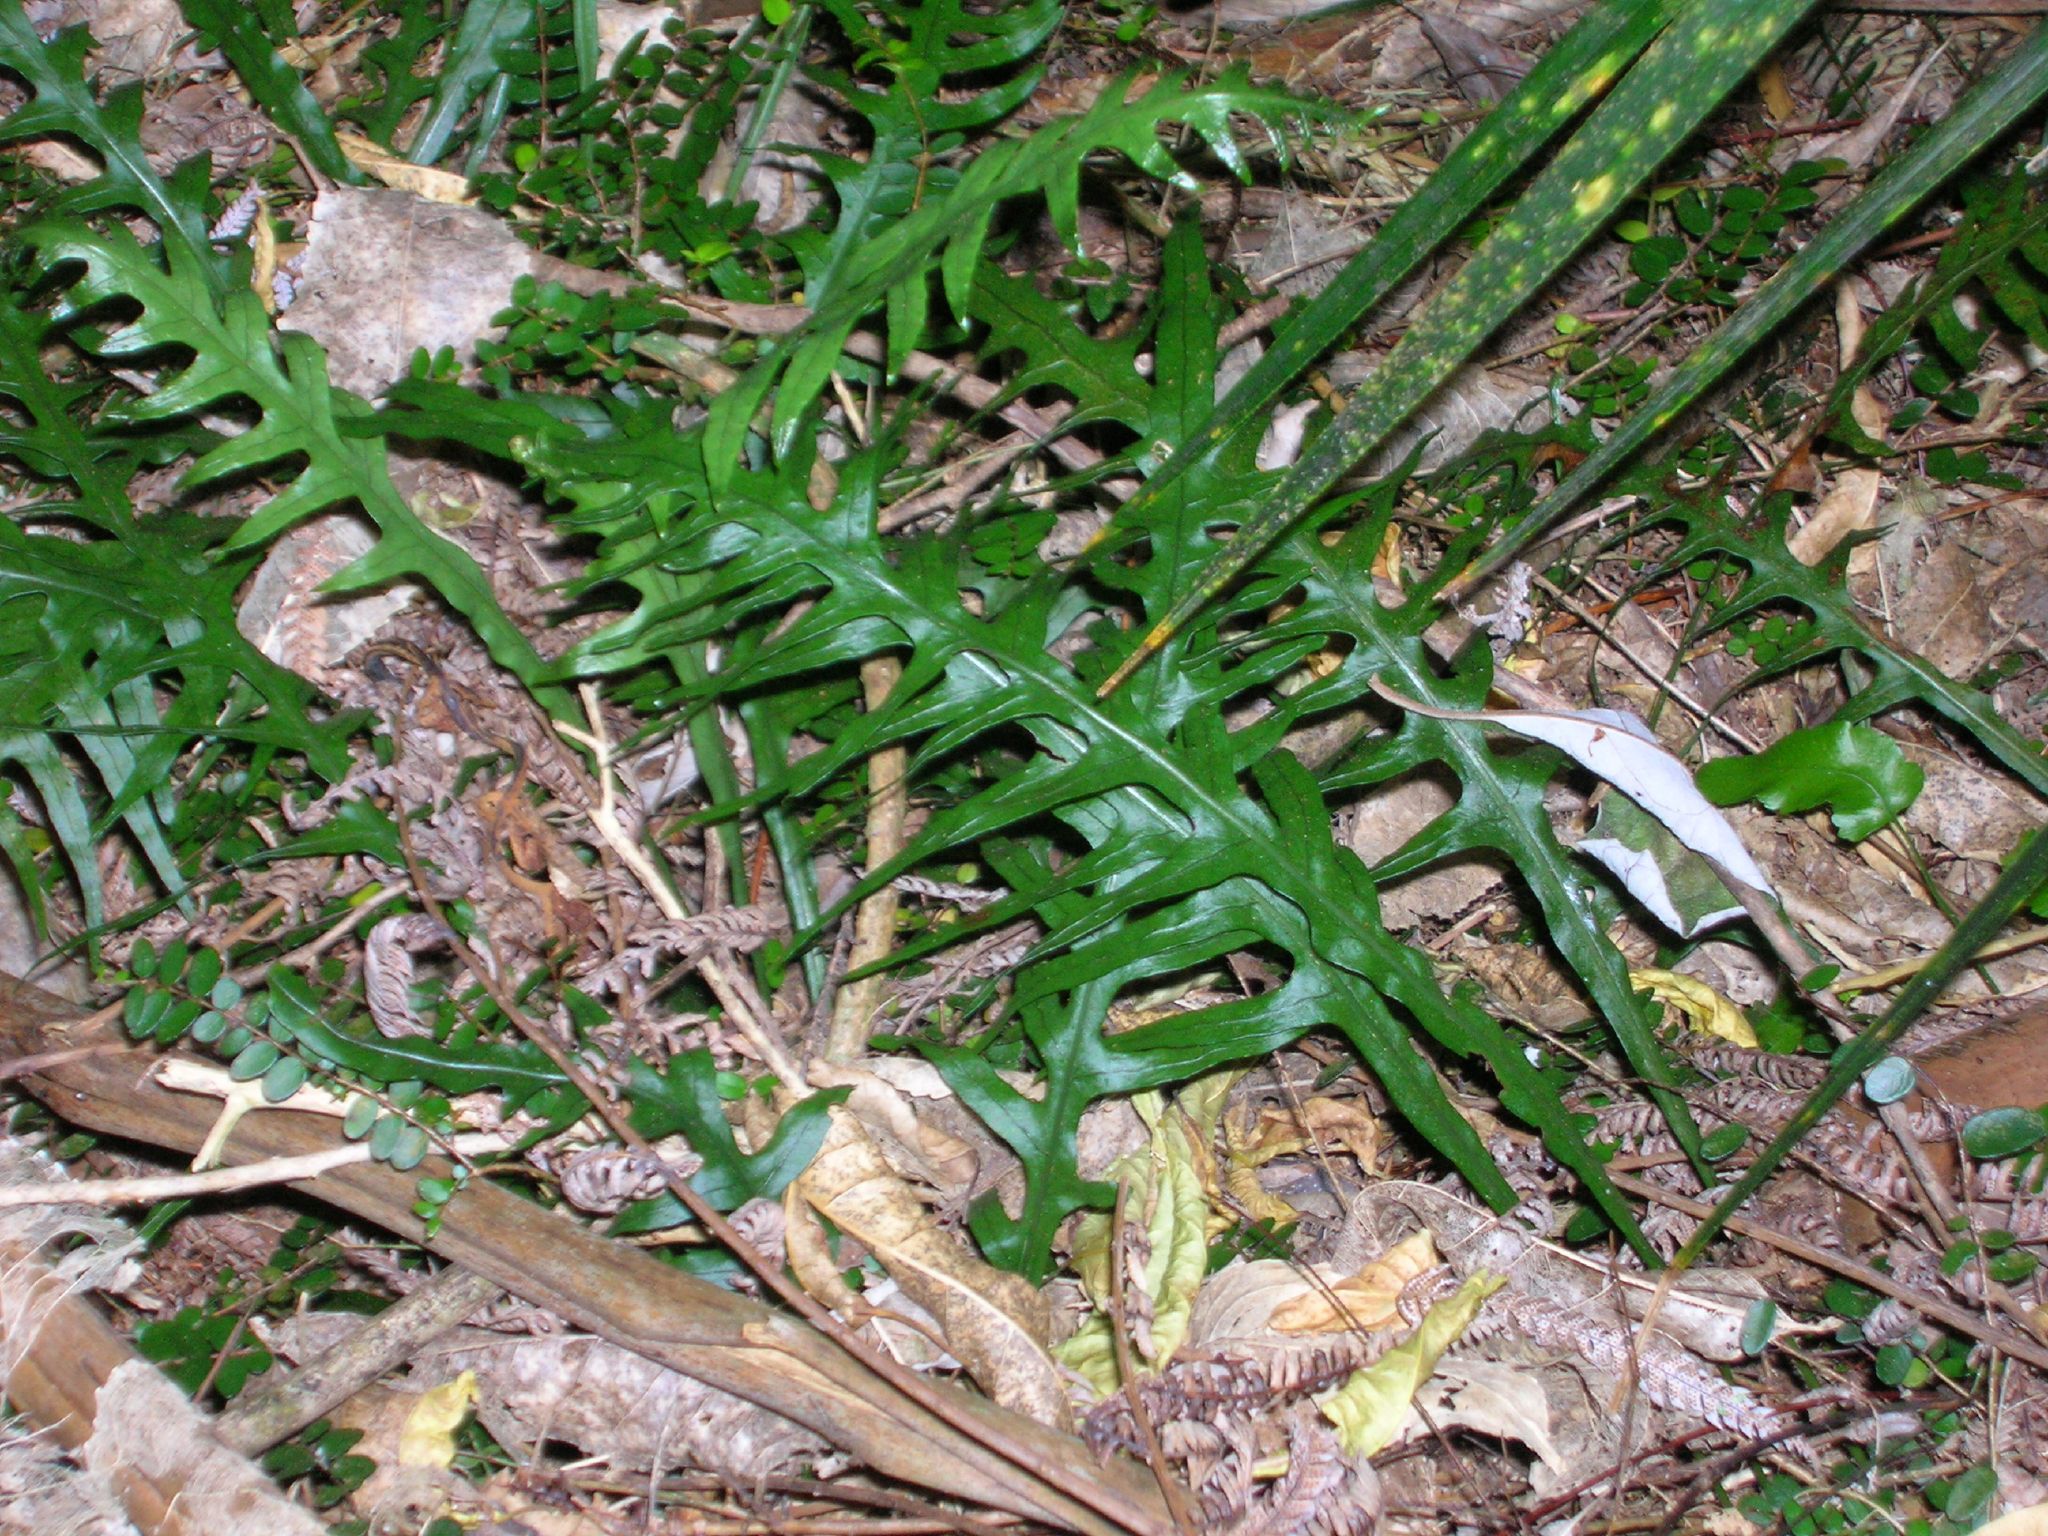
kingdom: Plantae
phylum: Tracheophyta
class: Polypodiopsida
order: Polypodiales
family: Polypodiaceae
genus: Lecanopteris
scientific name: Lecanopteris scandens
